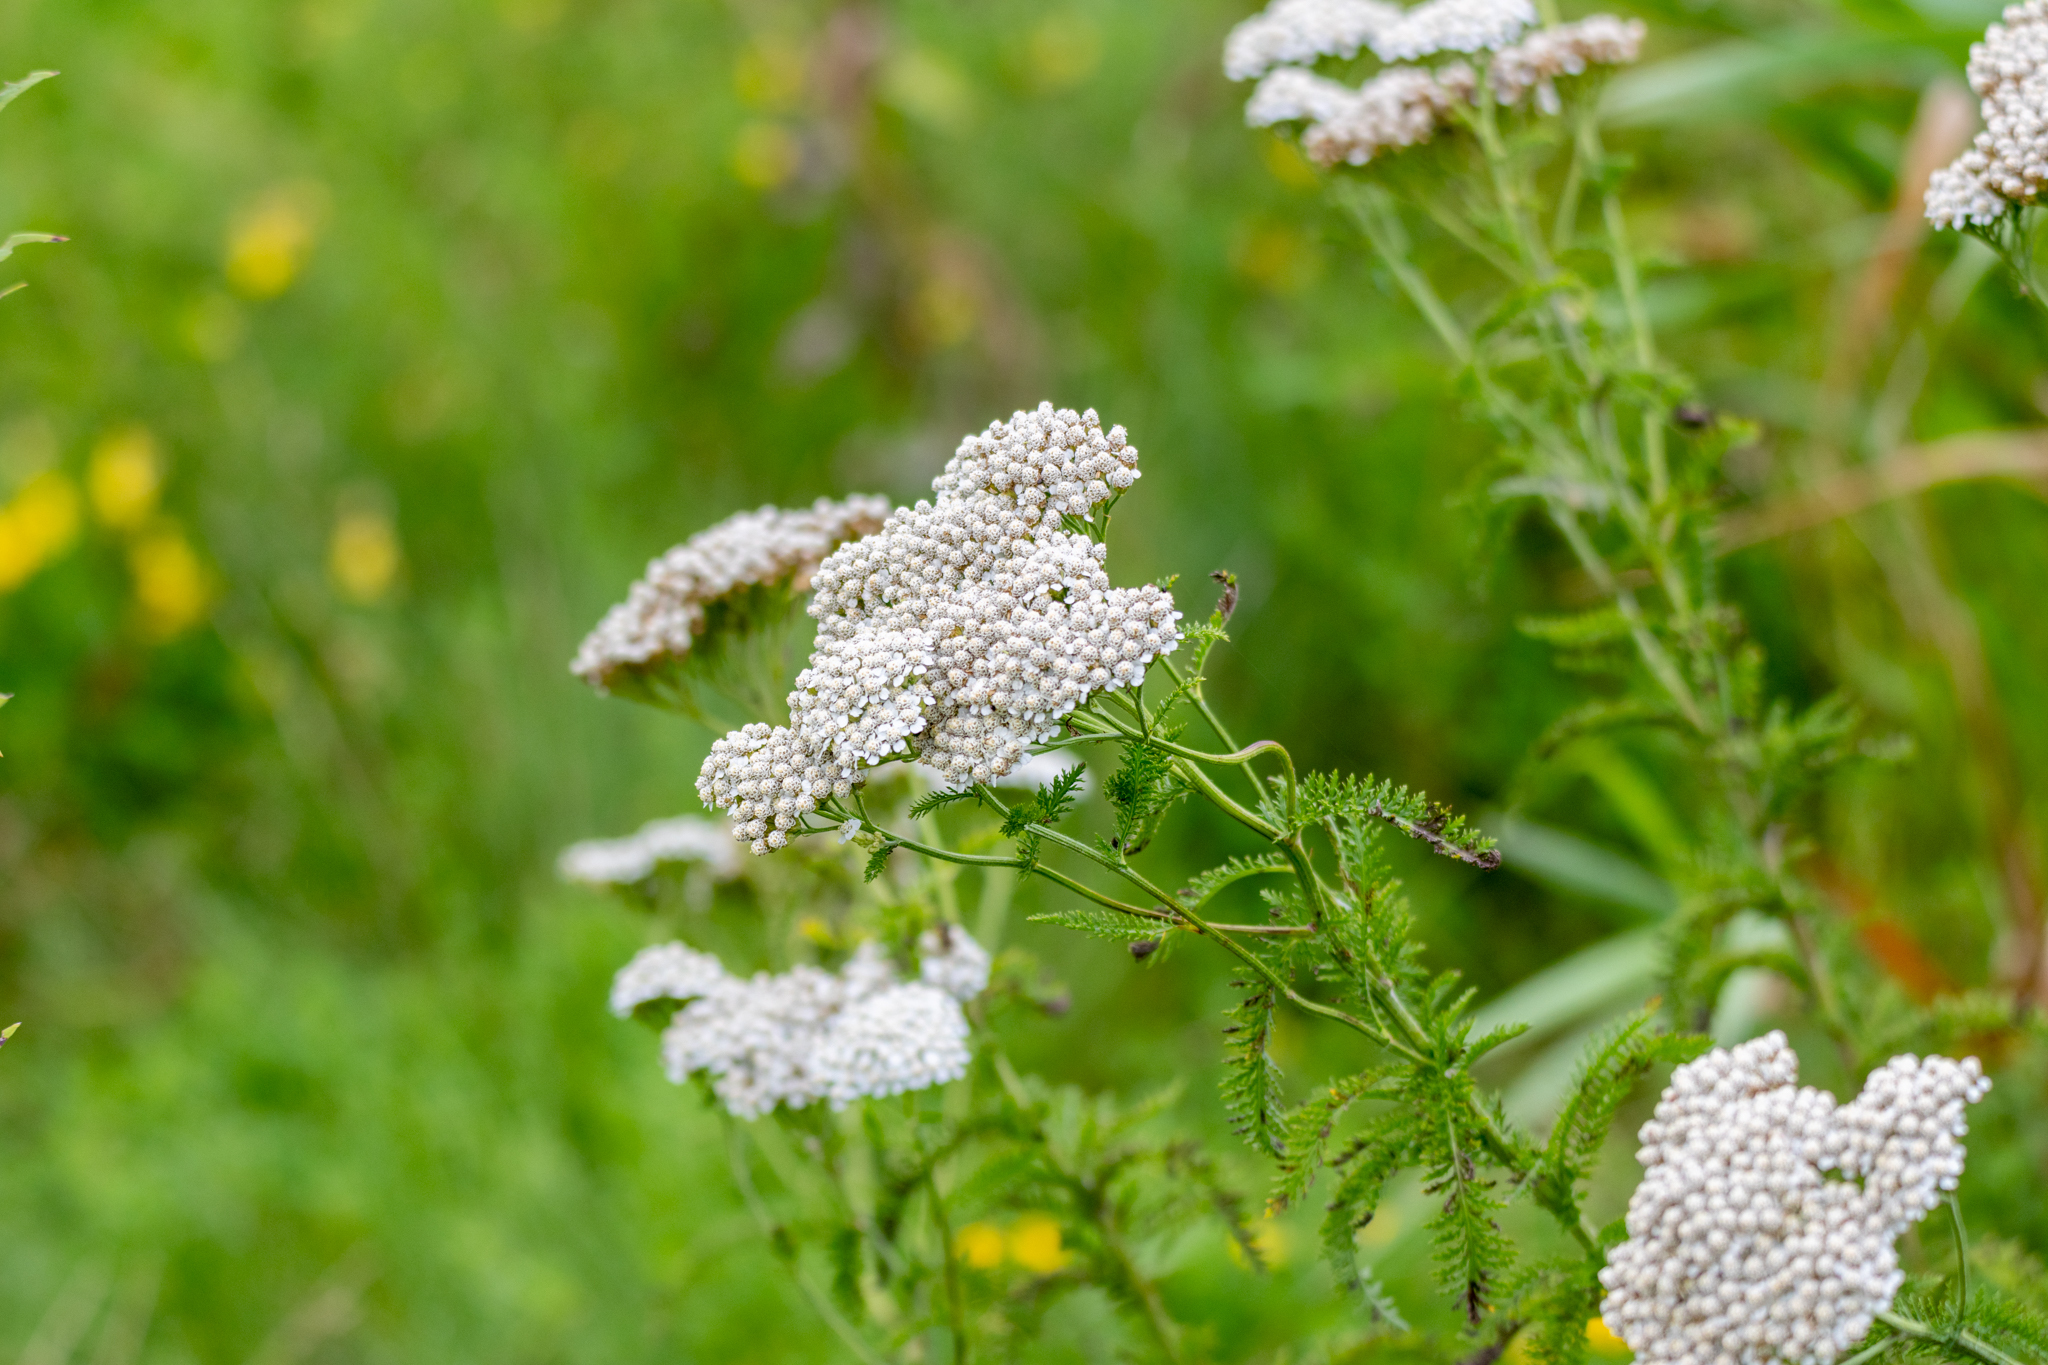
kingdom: Plantae
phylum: Tracheophyta
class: Magnoliopsida
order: Asterales
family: Asteraceae
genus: Achillea
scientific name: Achillea millefolium
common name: Yarrow
